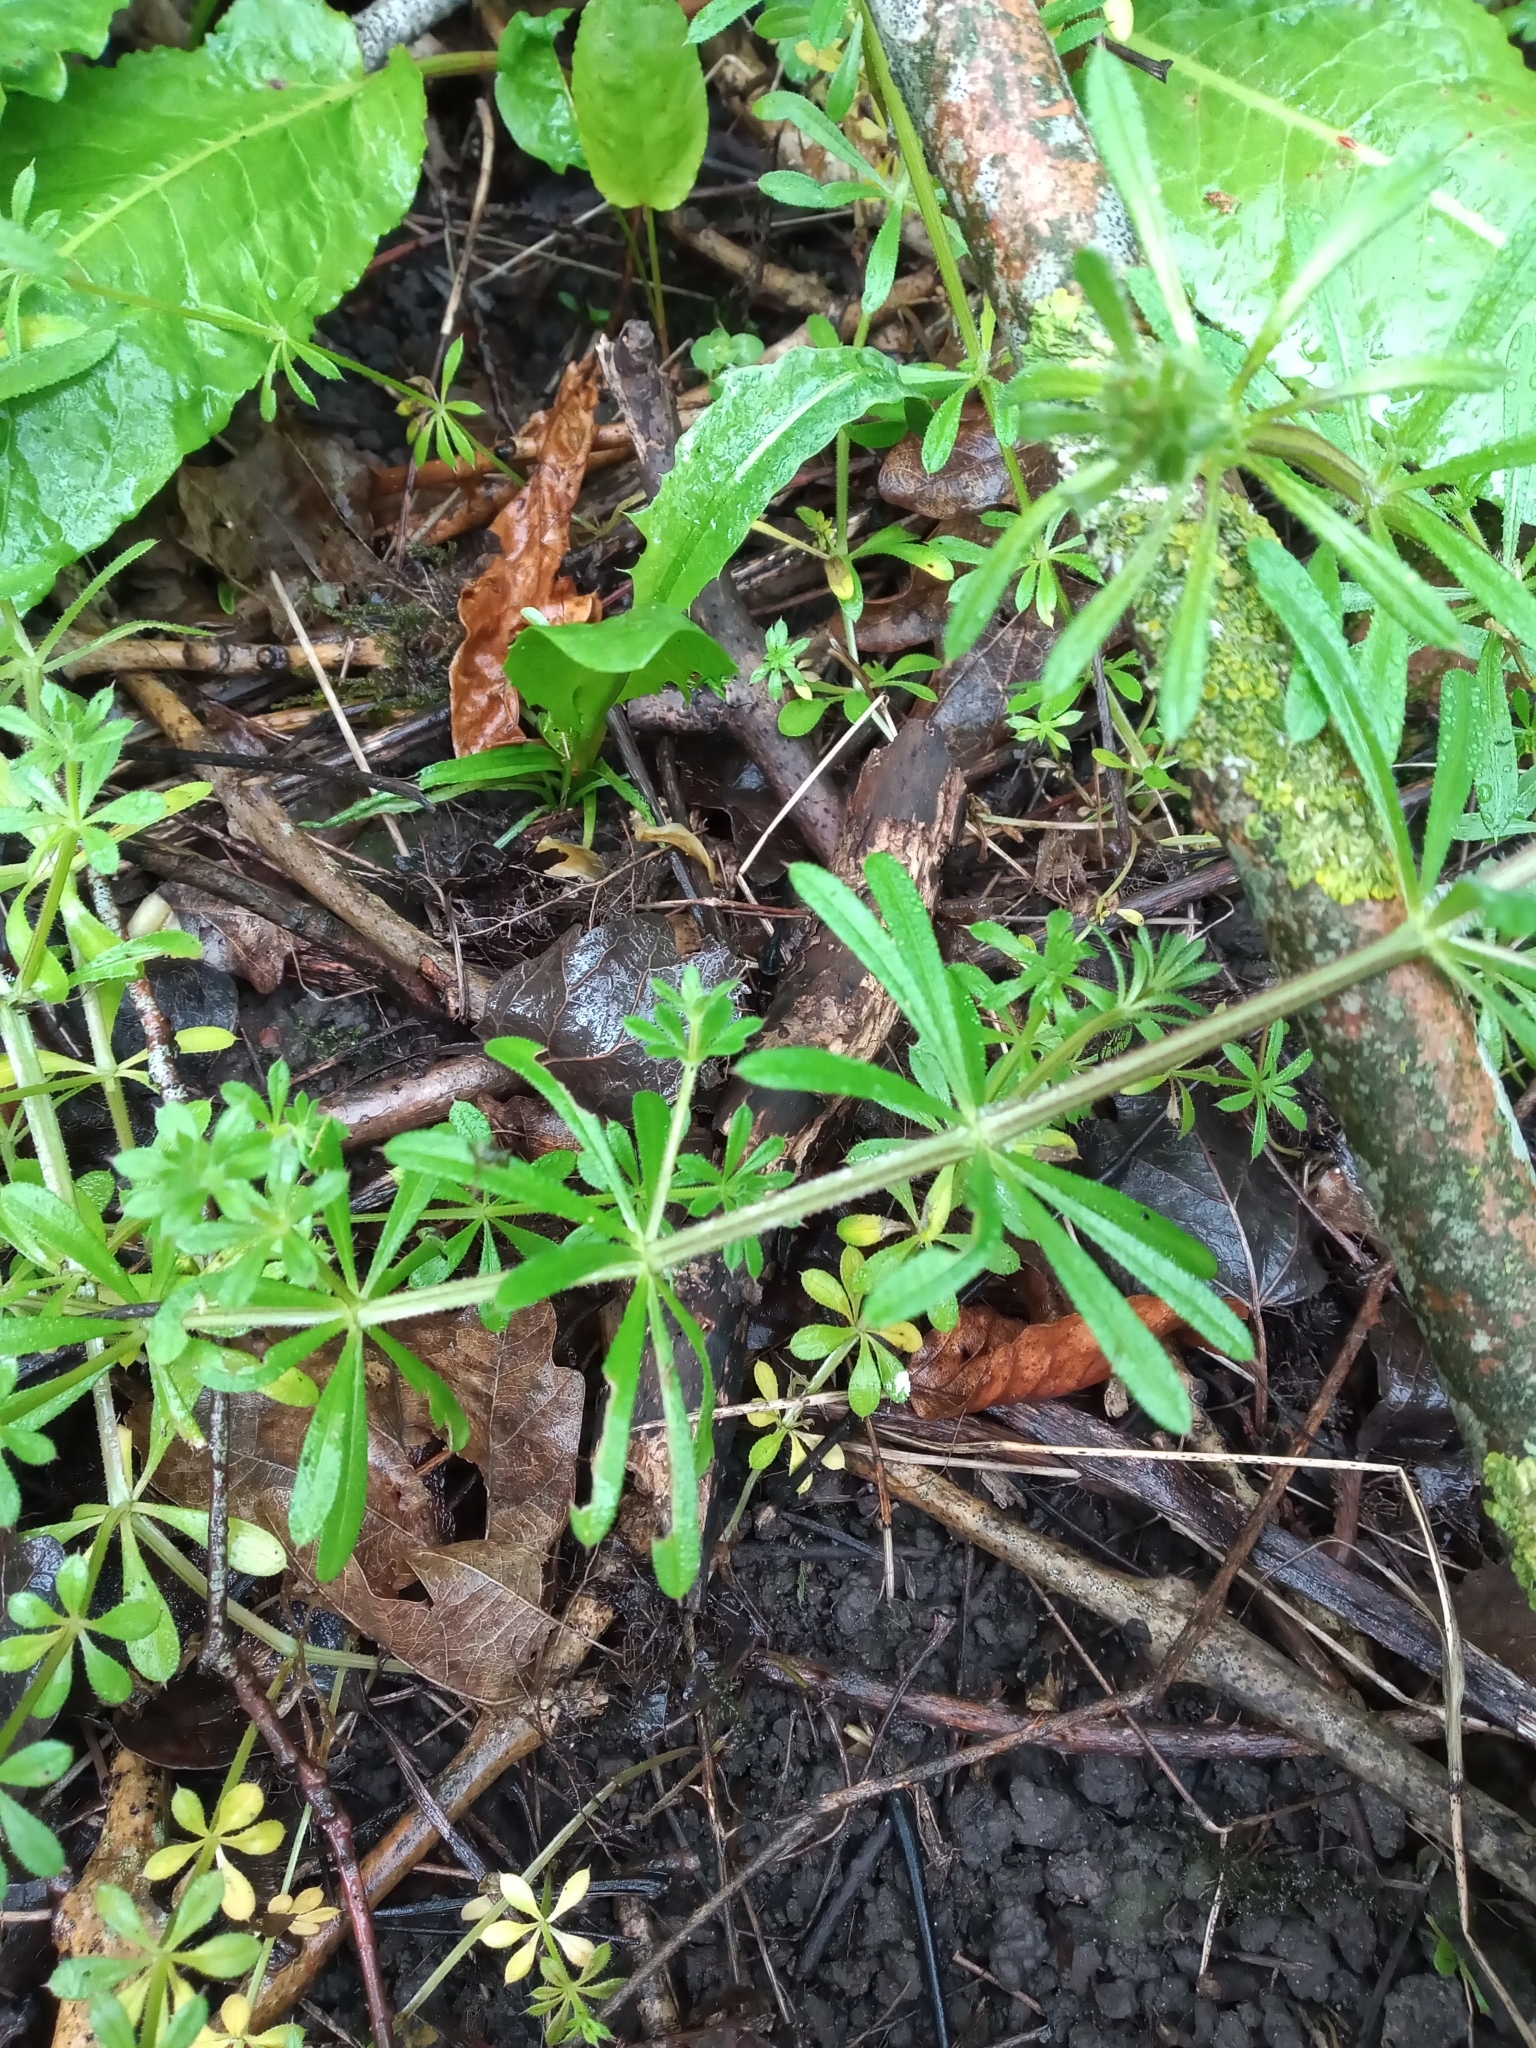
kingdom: Plantae
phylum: Tracheophyta
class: Magnoliopsida
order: Gentianales
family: Rubiaceae
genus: Galium
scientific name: Galium aparine
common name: Cleavers
